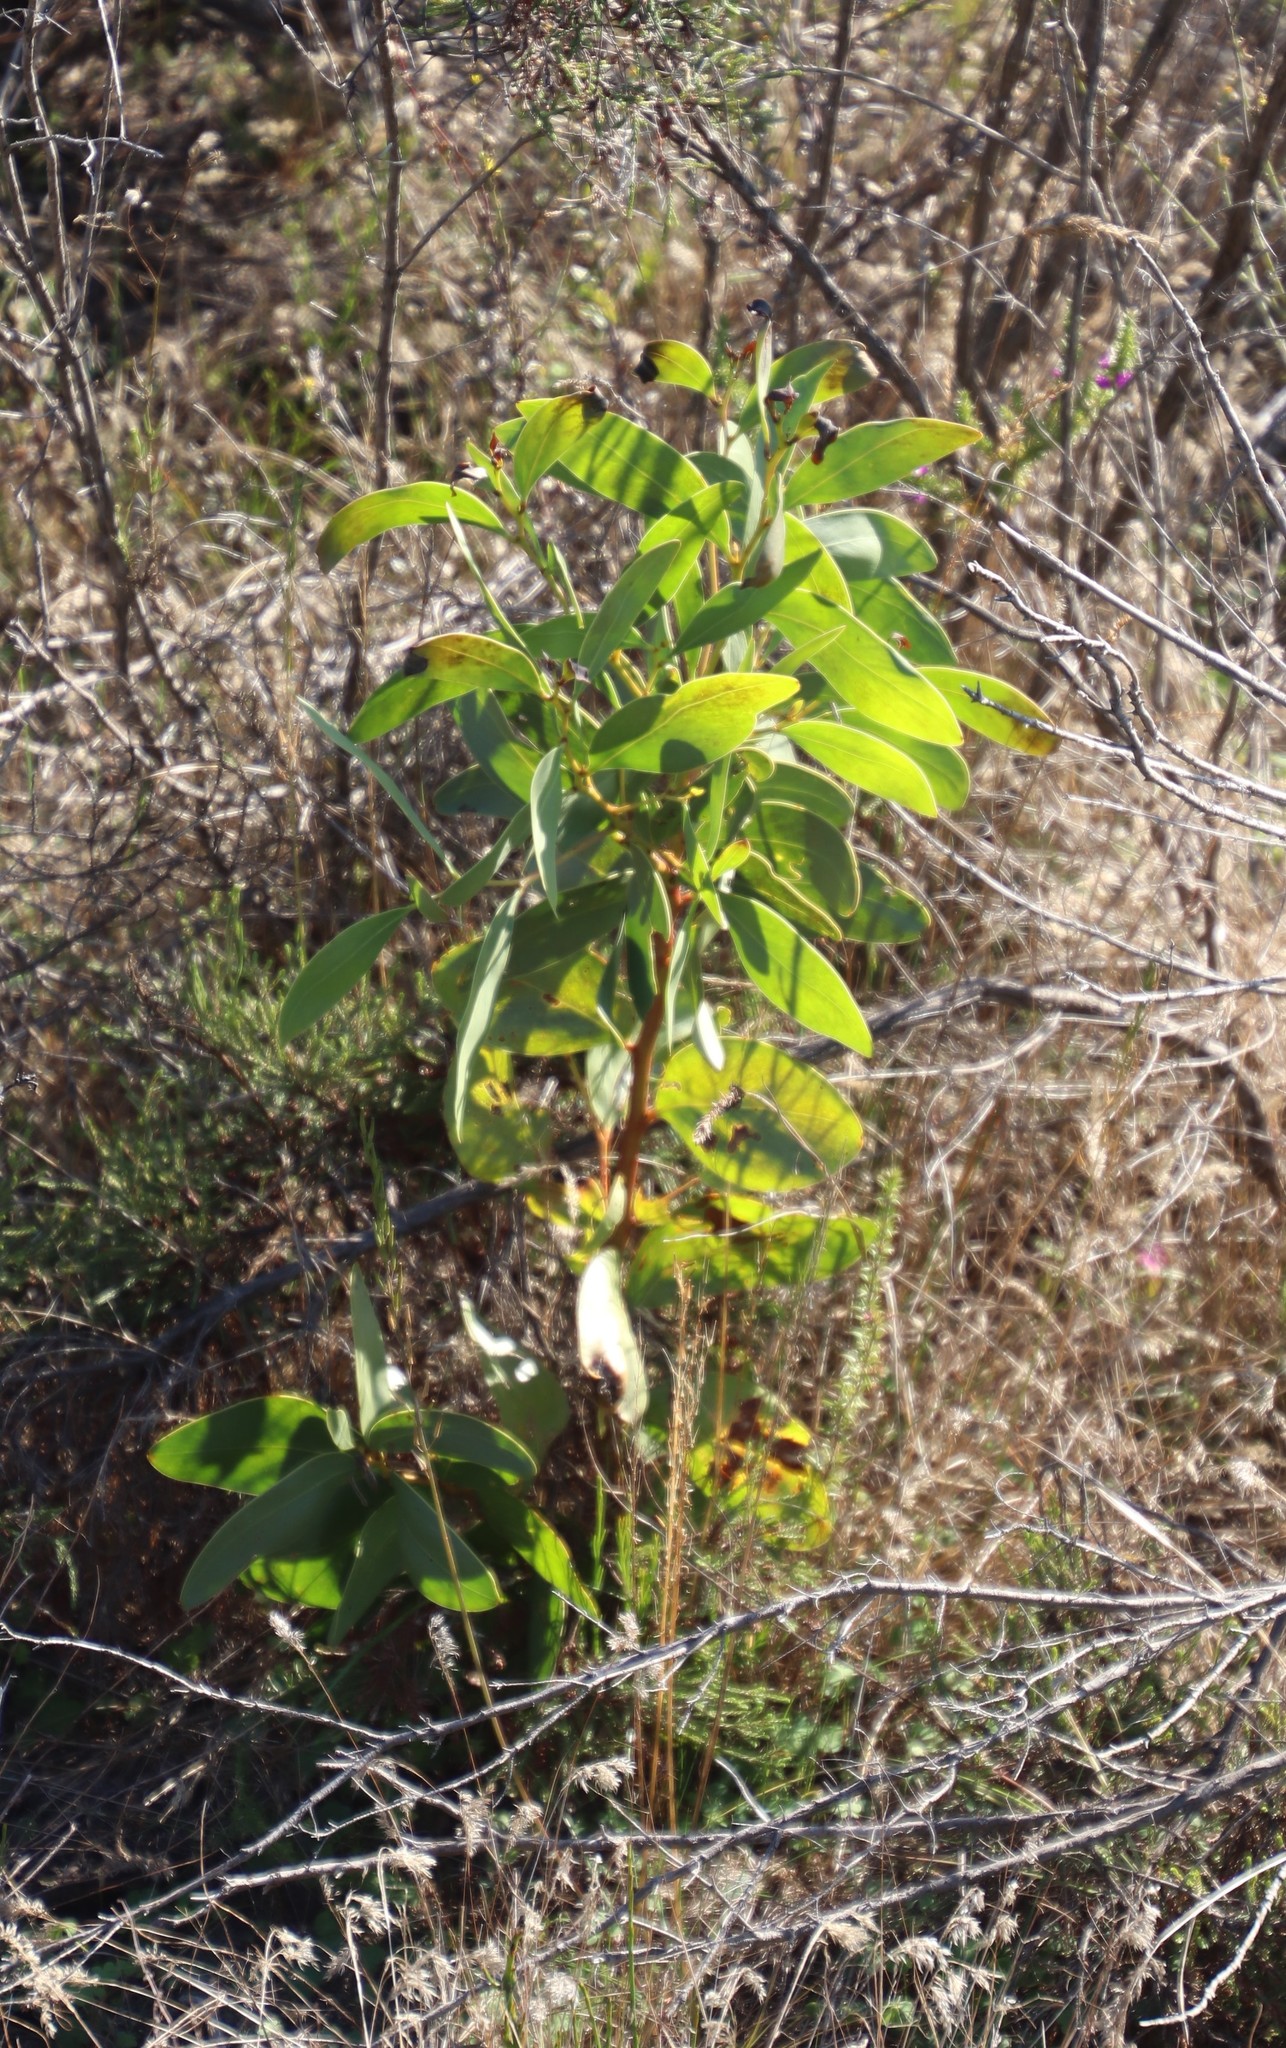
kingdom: Plantae
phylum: Tracheophyta
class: Magnoliopsida
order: Fabales
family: Fabaceae
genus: Acacia
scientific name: Acacia pycnantha
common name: Golden wattle
